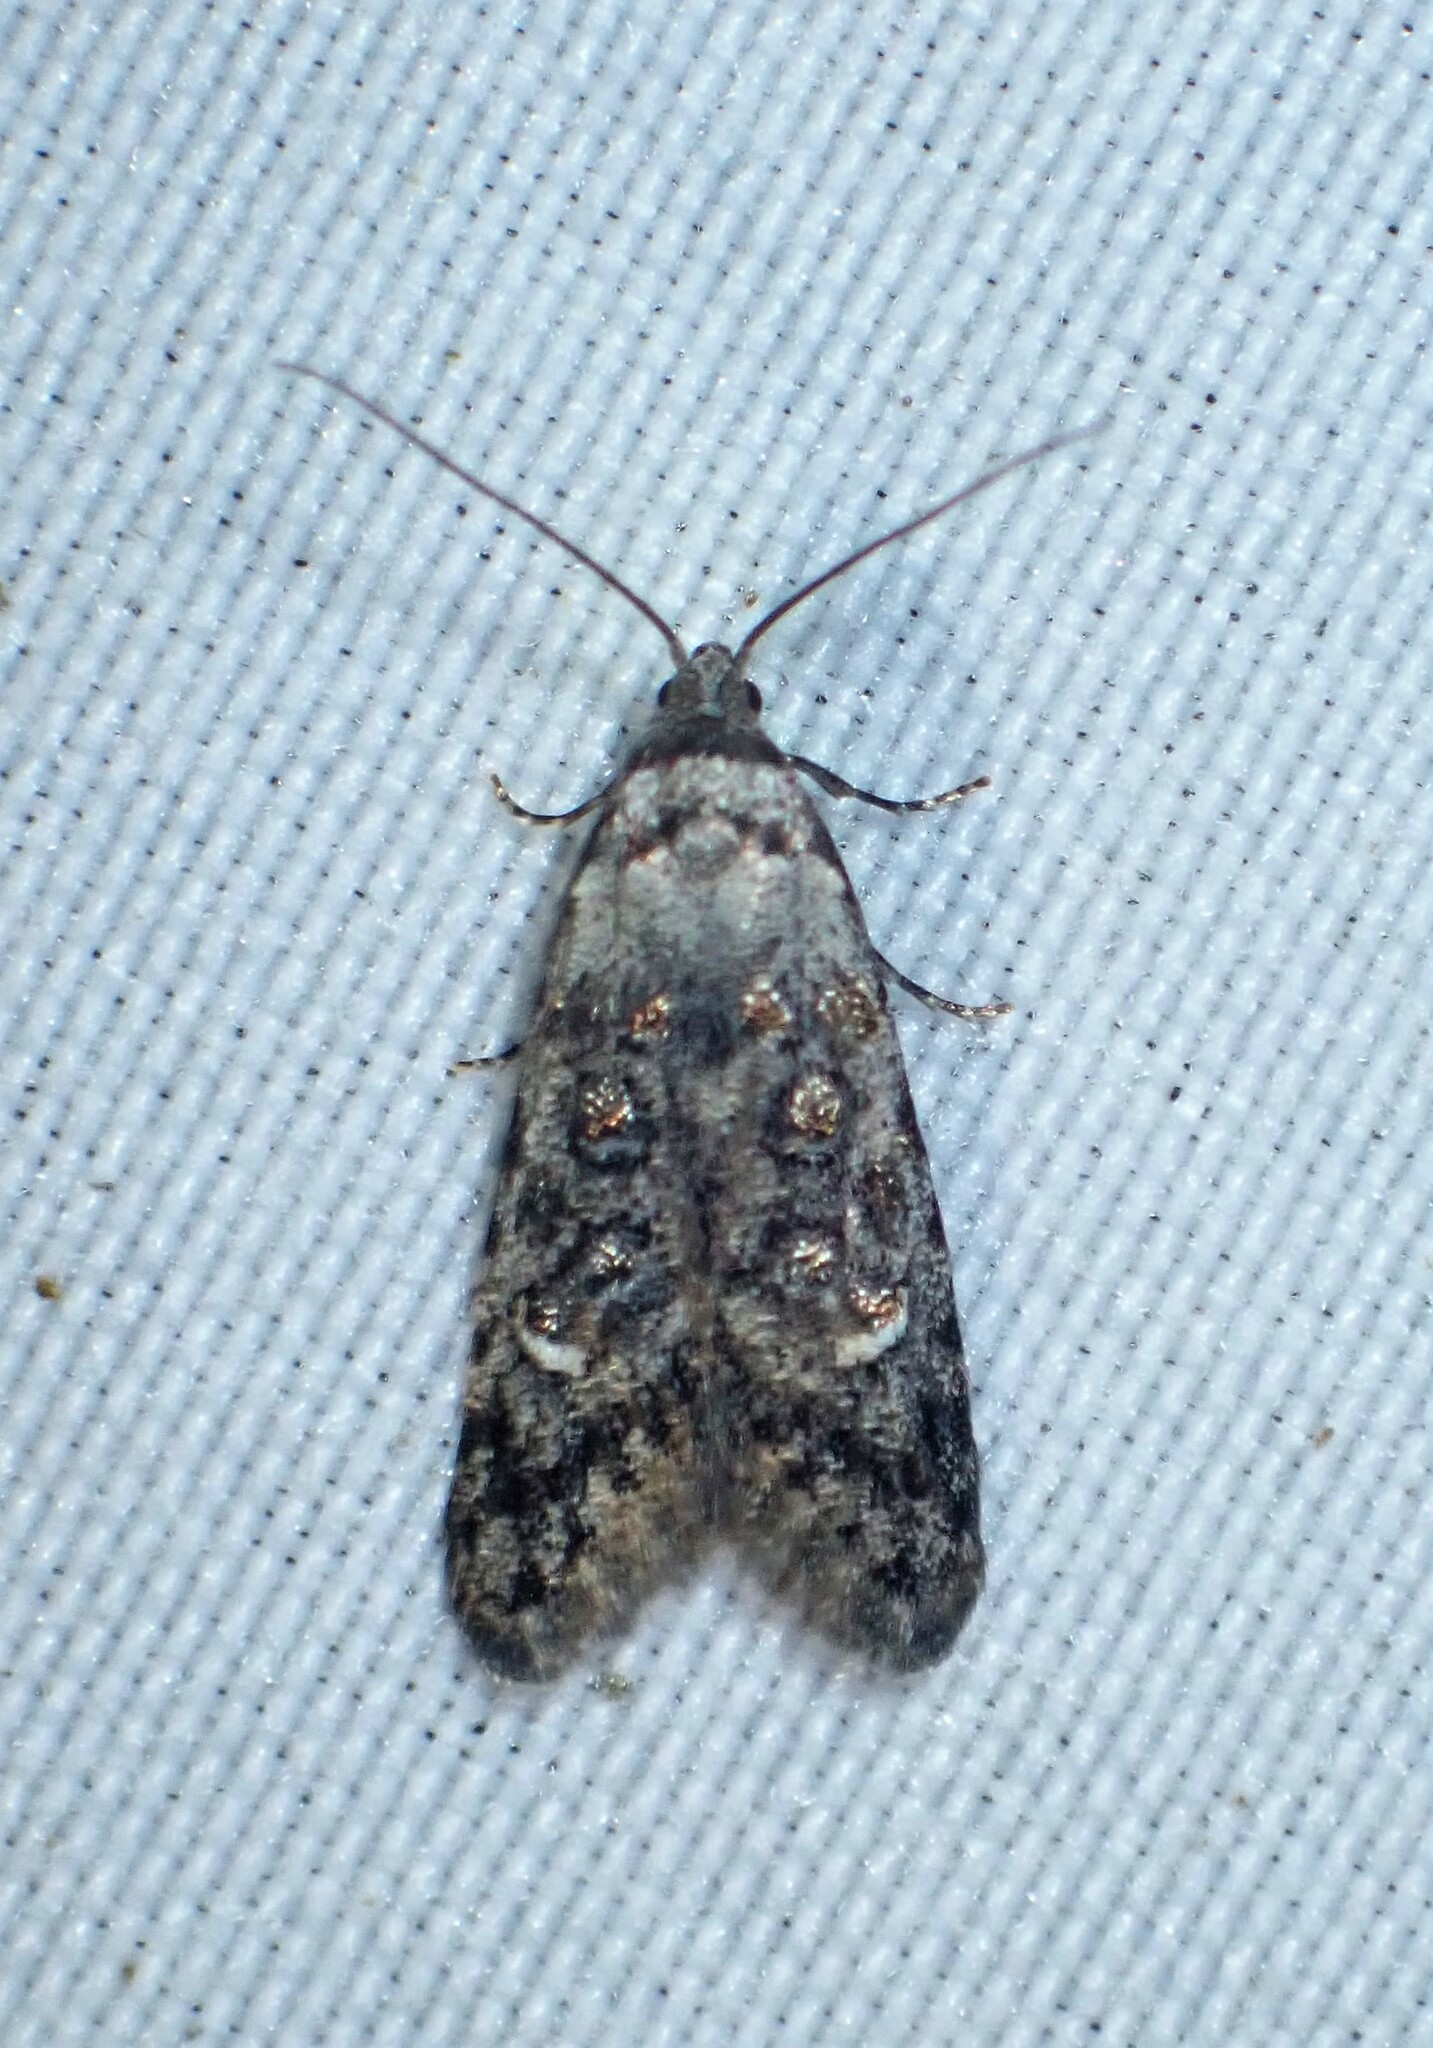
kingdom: Animalia
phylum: Arthropoda
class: Insecta
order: Lepidoptera
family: Carposinidae
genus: Bondia
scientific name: Bondia crescentella
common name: Crescent-marked bondia
